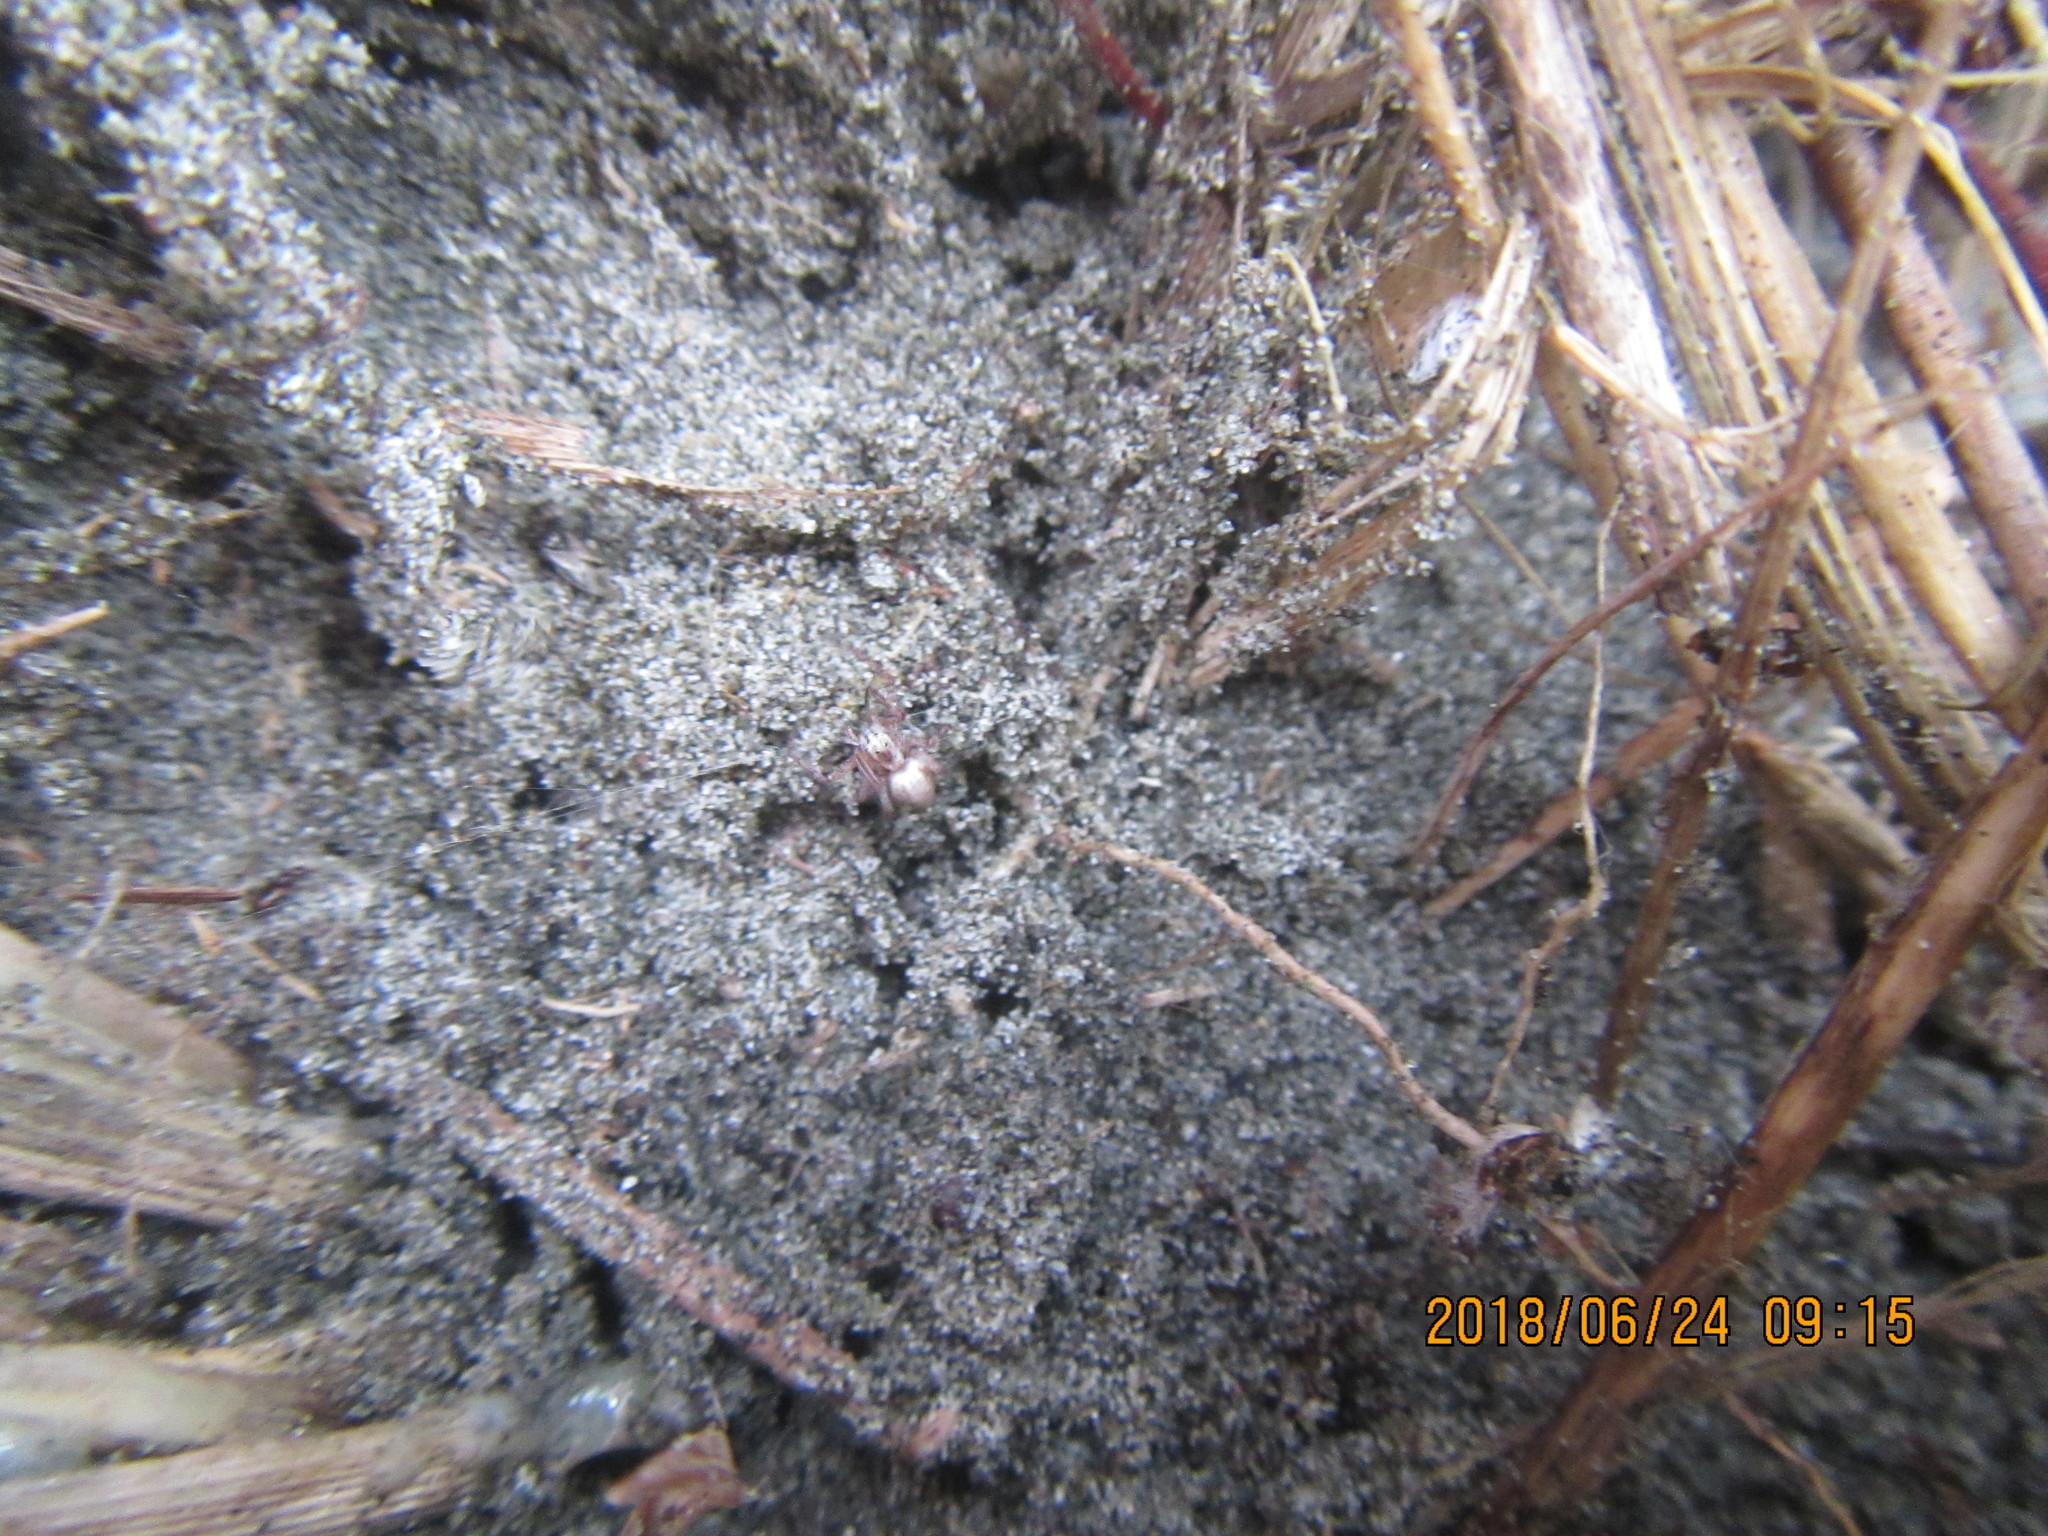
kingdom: Animalia
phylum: Arthropoda
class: Arachnida
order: Araneae
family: Oxyopidae
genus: Oxyopes
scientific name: Oxyopes gracilipes
